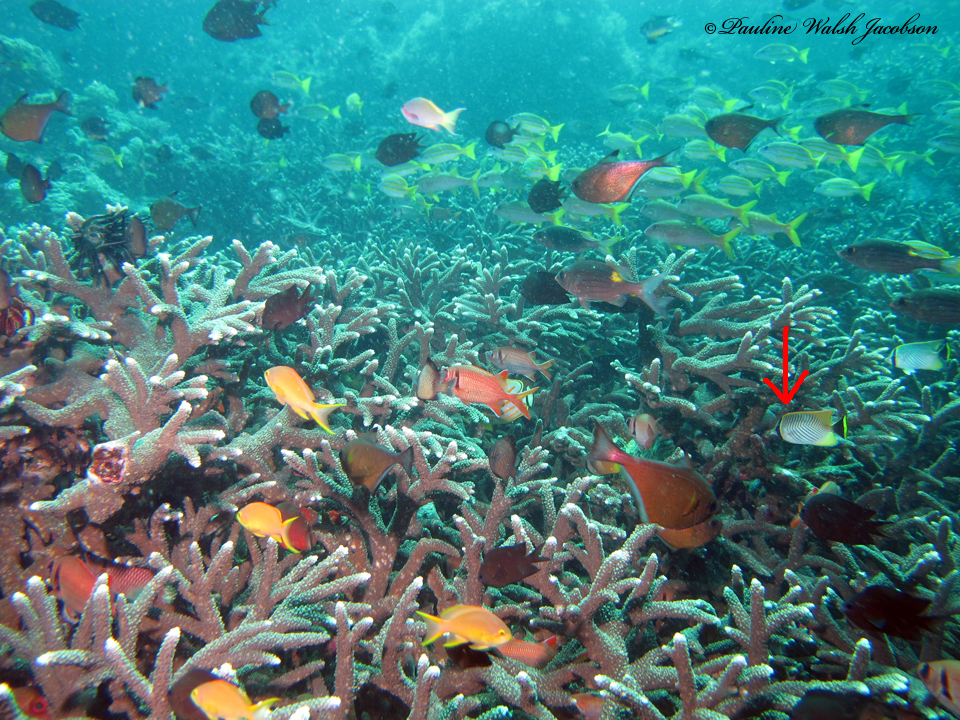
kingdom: Animalia
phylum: Chordata
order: Perciformes
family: Chaetodontidae
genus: Chaetodon
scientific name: Chaetodon trifascialis
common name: Chevroned butterflyfish
